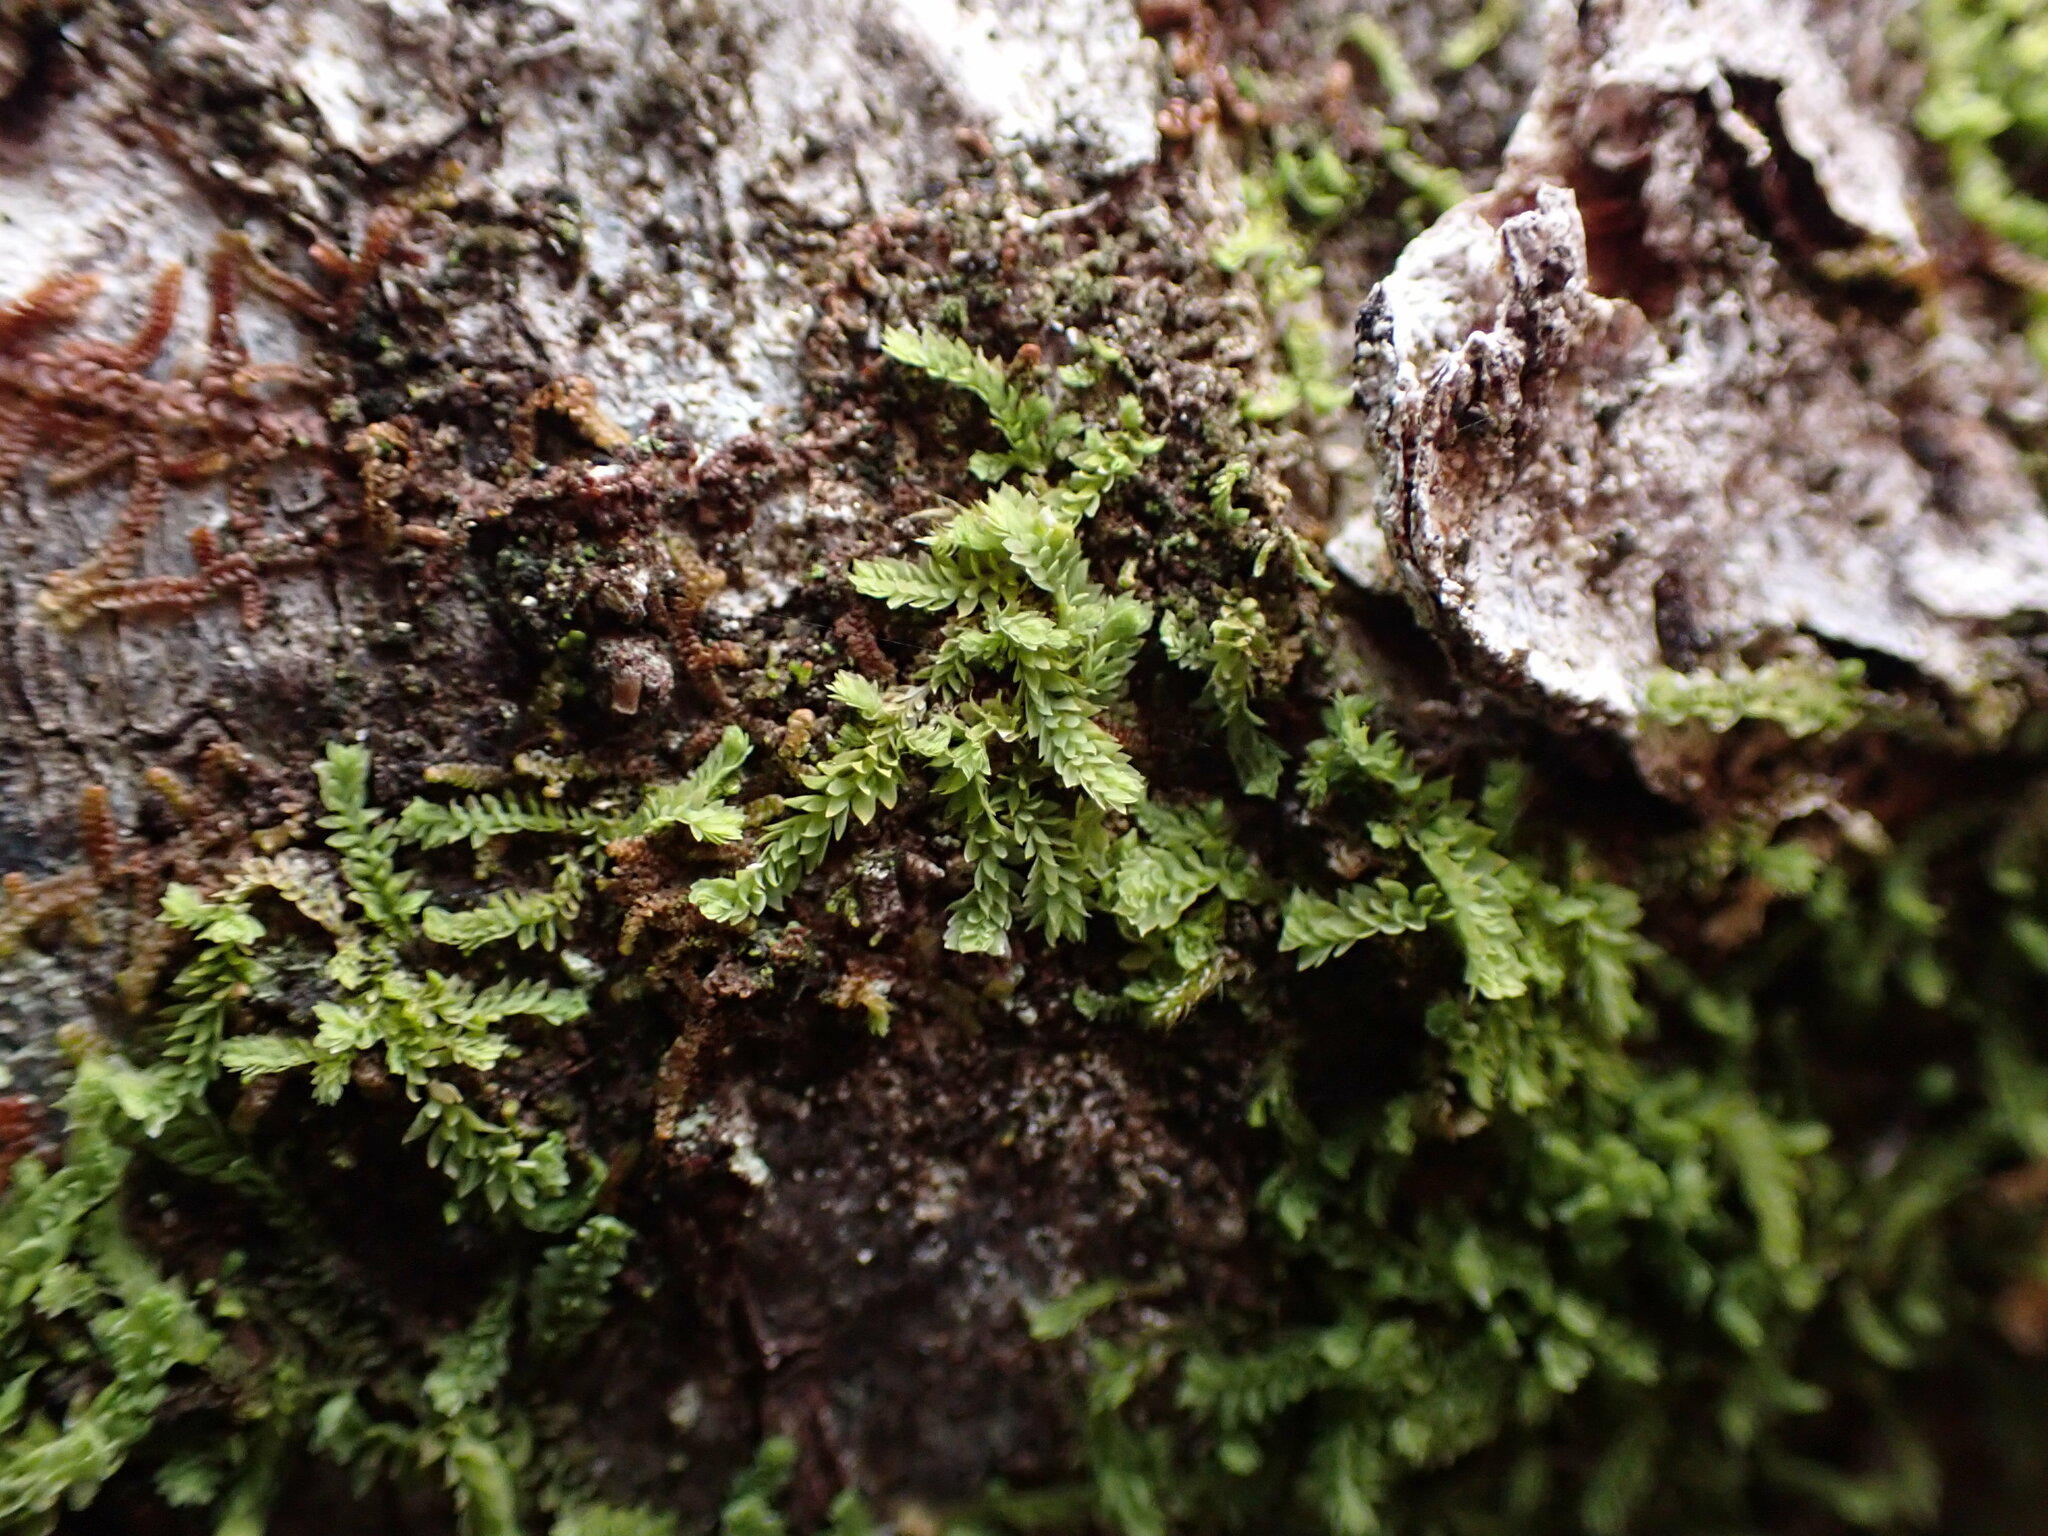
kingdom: Plantae
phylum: Marchantiophyta
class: Jungermanniopsida
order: Jungermanniales
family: Scapaniaceae
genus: Douinia
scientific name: Douinia ovata
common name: Waxy earwort
